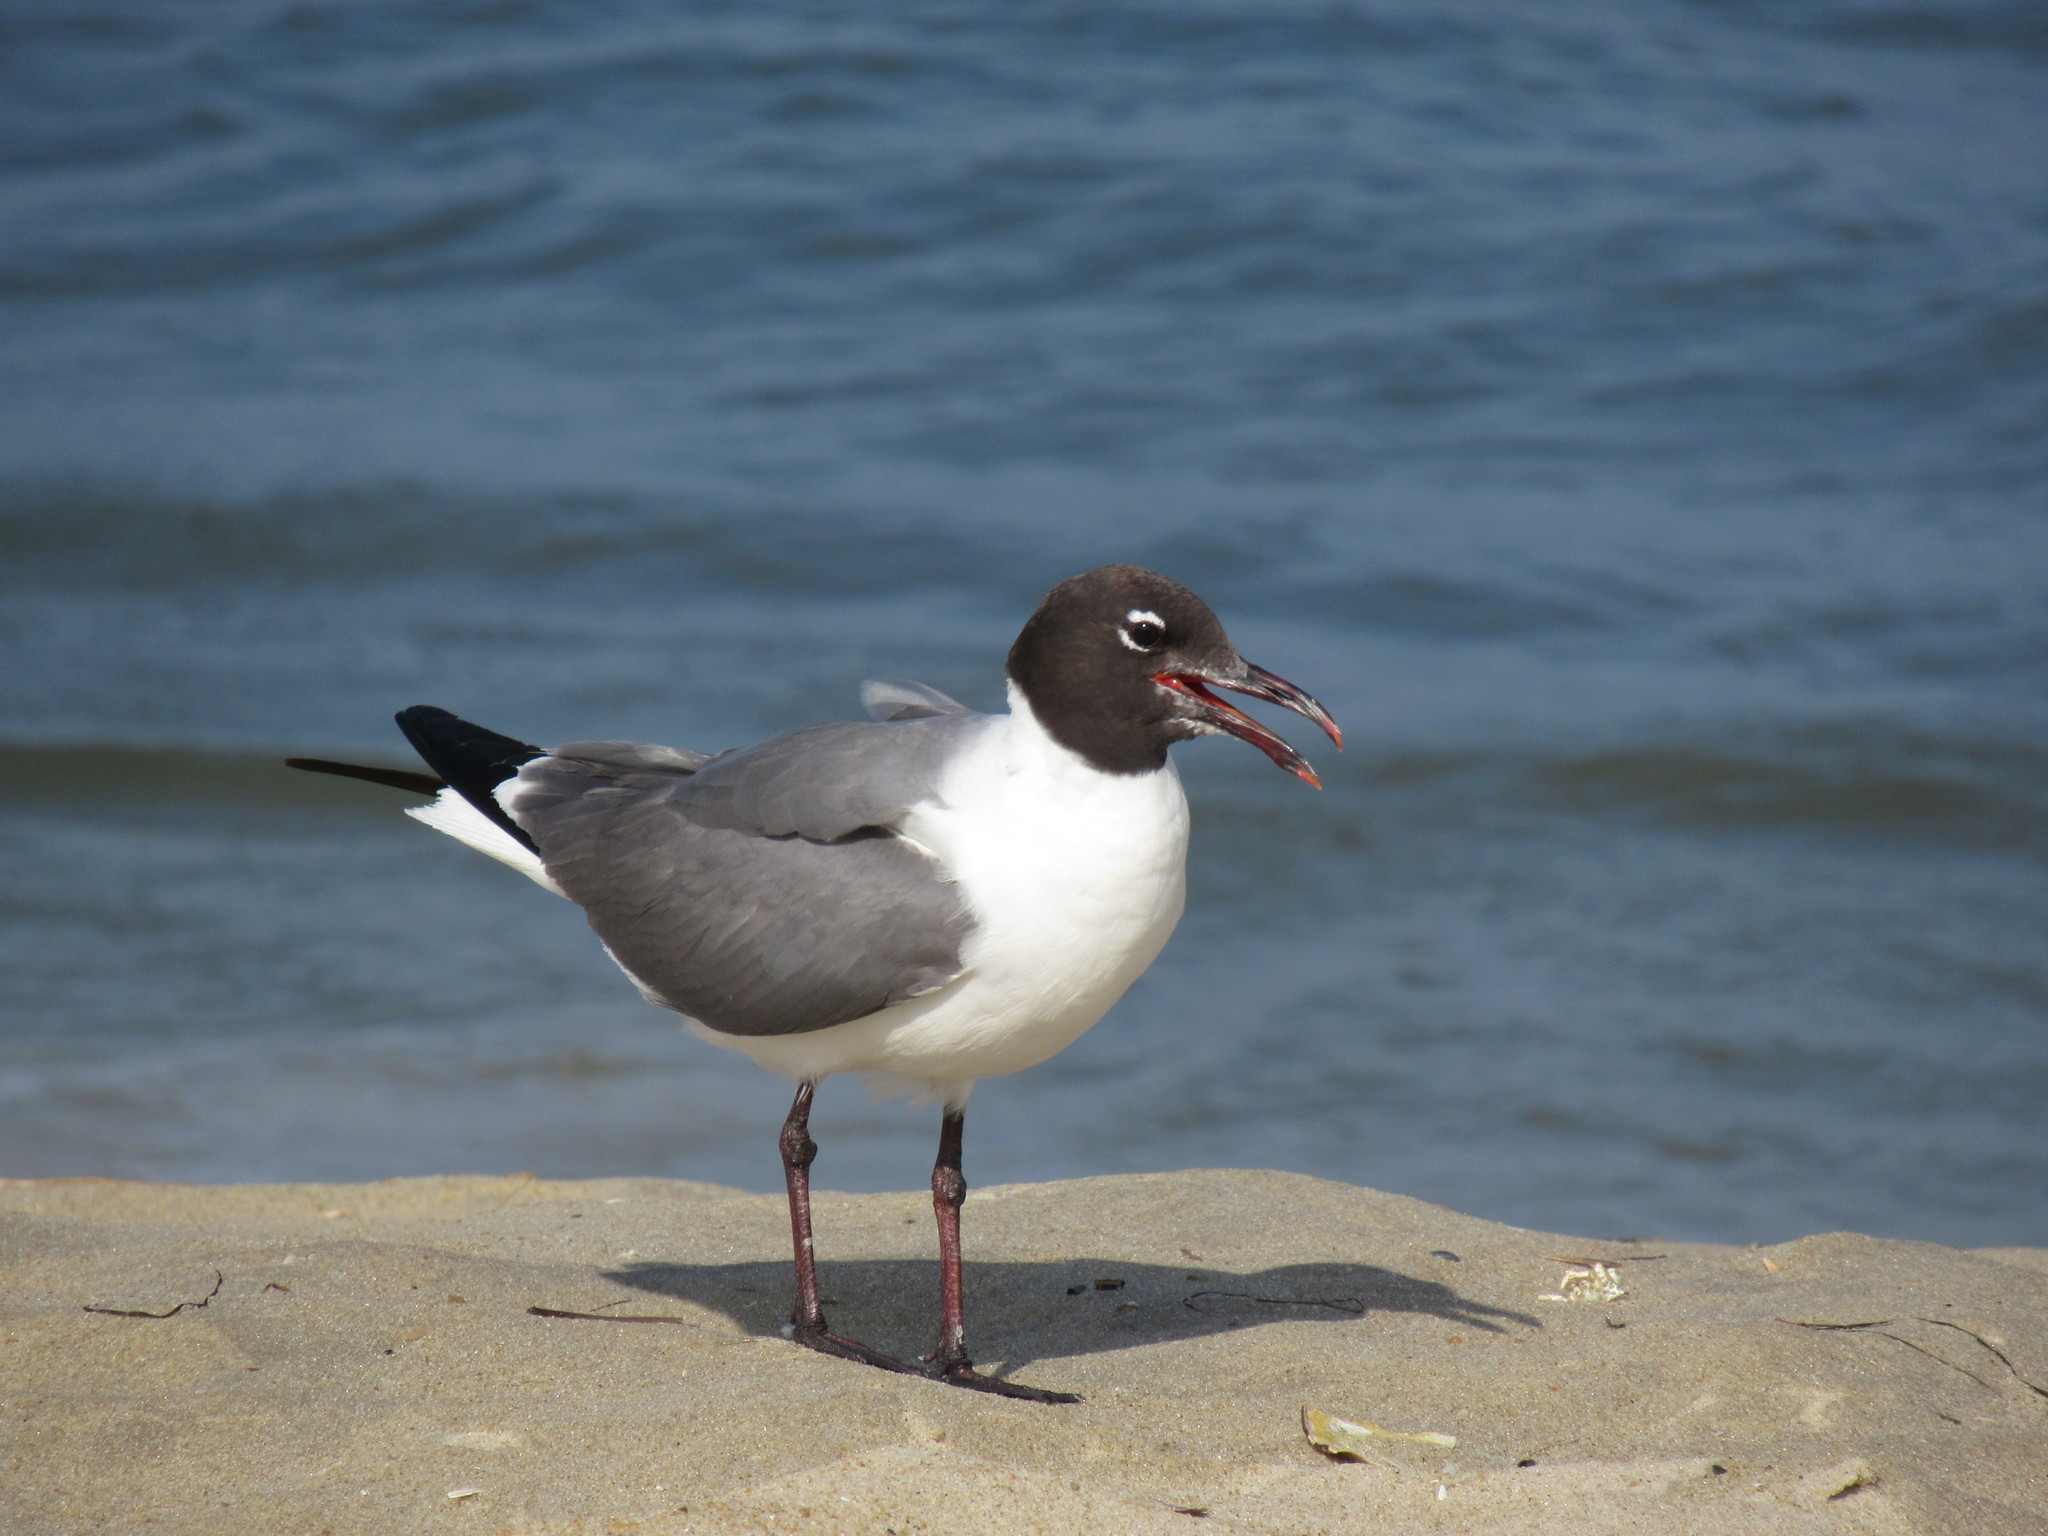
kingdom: Animalia
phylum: Chordata
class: Aves
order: Charadriiformes
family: Laridae
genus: Leucophaeus
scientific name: Leucophaeus atricilla
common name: Laughing gull
